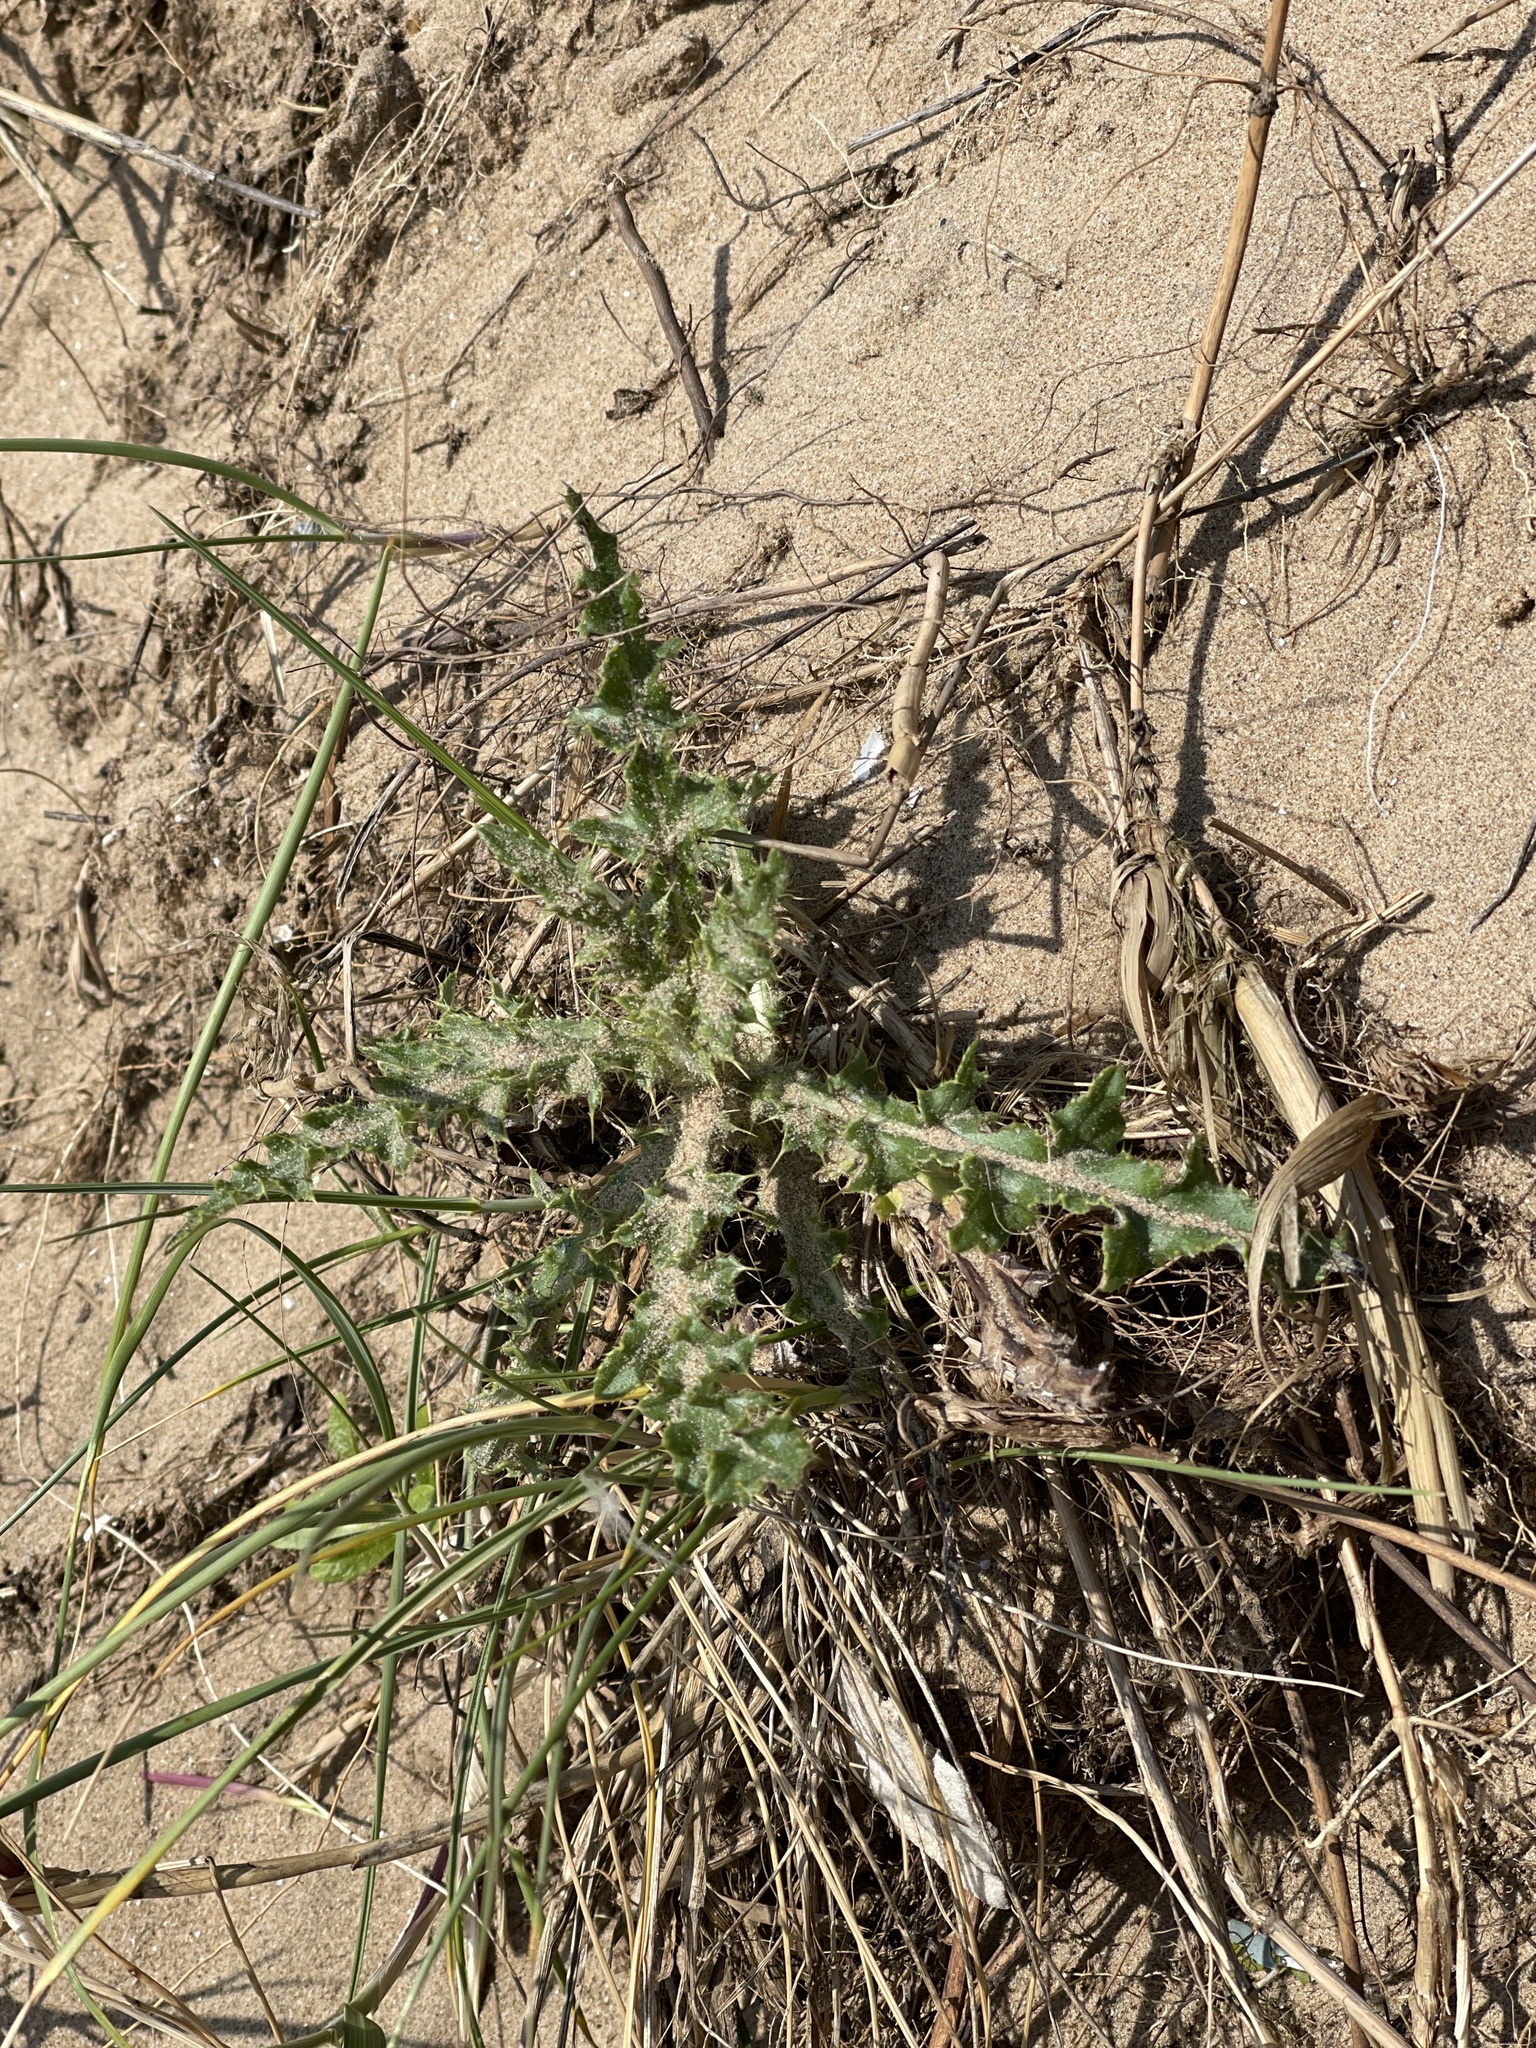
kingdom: Plantae
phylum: Tracheophyta
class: Magnoliopsida
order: Asterales
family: Asteraceae
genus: Cirsium
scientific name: Cirsium arvense
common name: Creeping thistle
